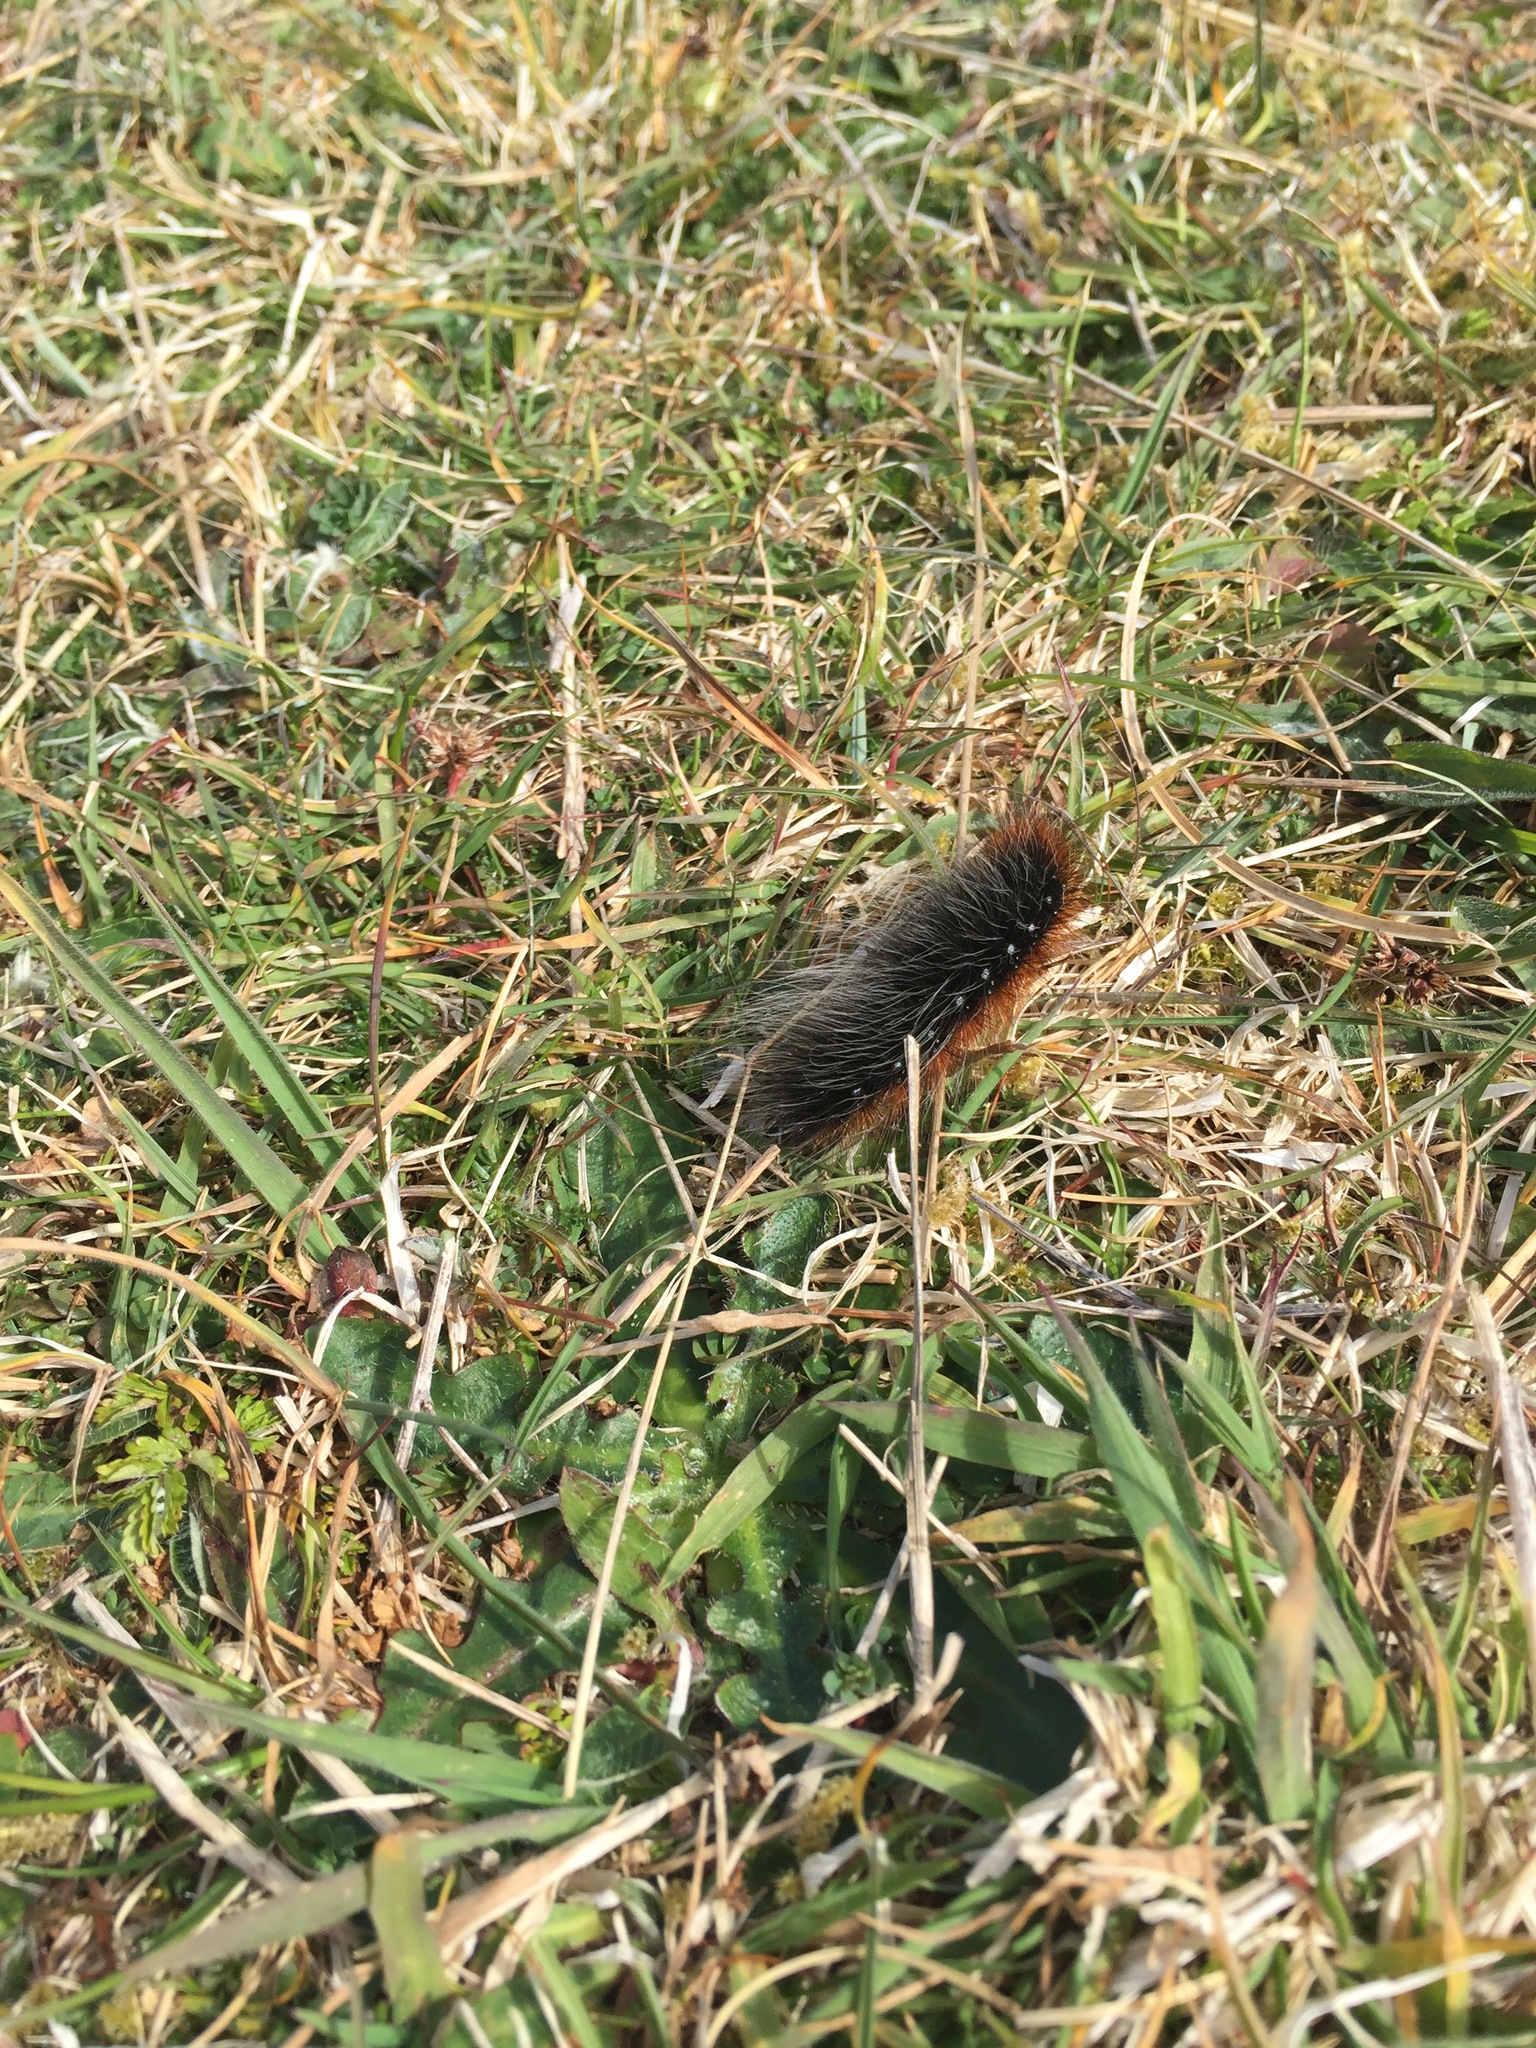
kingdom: Animalia
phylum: Arthropoda
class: Insecta
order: Lepidoptera
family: Erebidae
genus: Arctia
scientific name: Arctia caja
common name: Garden tiger
